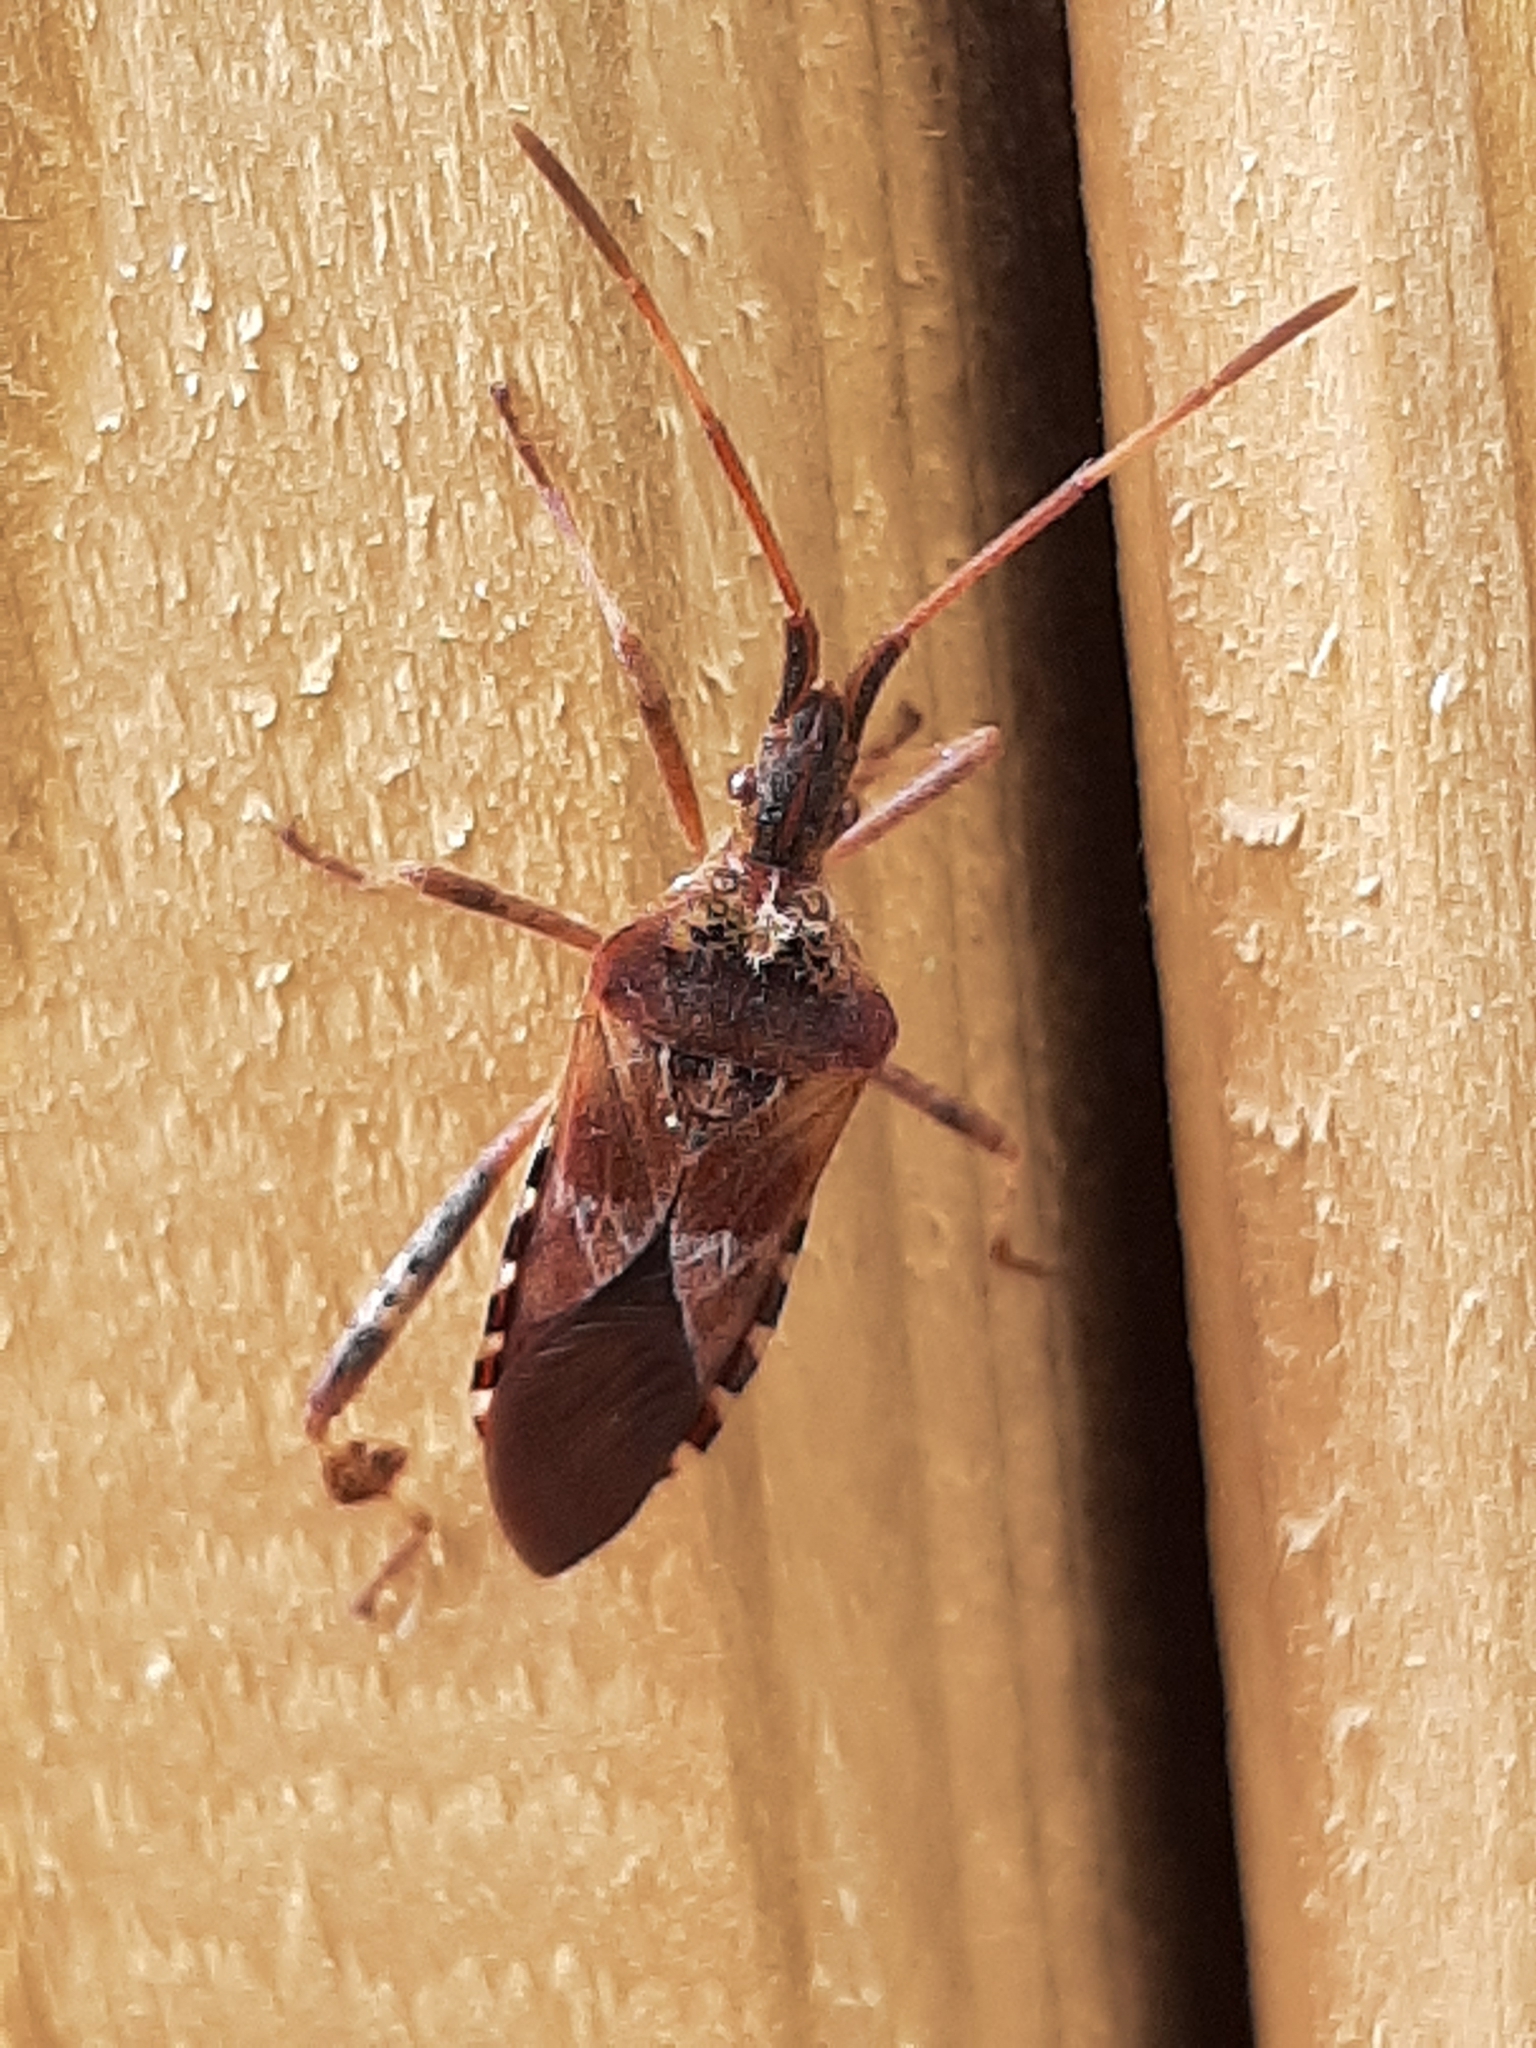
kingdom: Animalia
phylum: Arthropoda
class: Insecta
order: Hemiptera
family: Coreidae
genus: Leptoglossus
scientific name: Leptoglossus occidentalis
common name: Western conifer-seed bug
